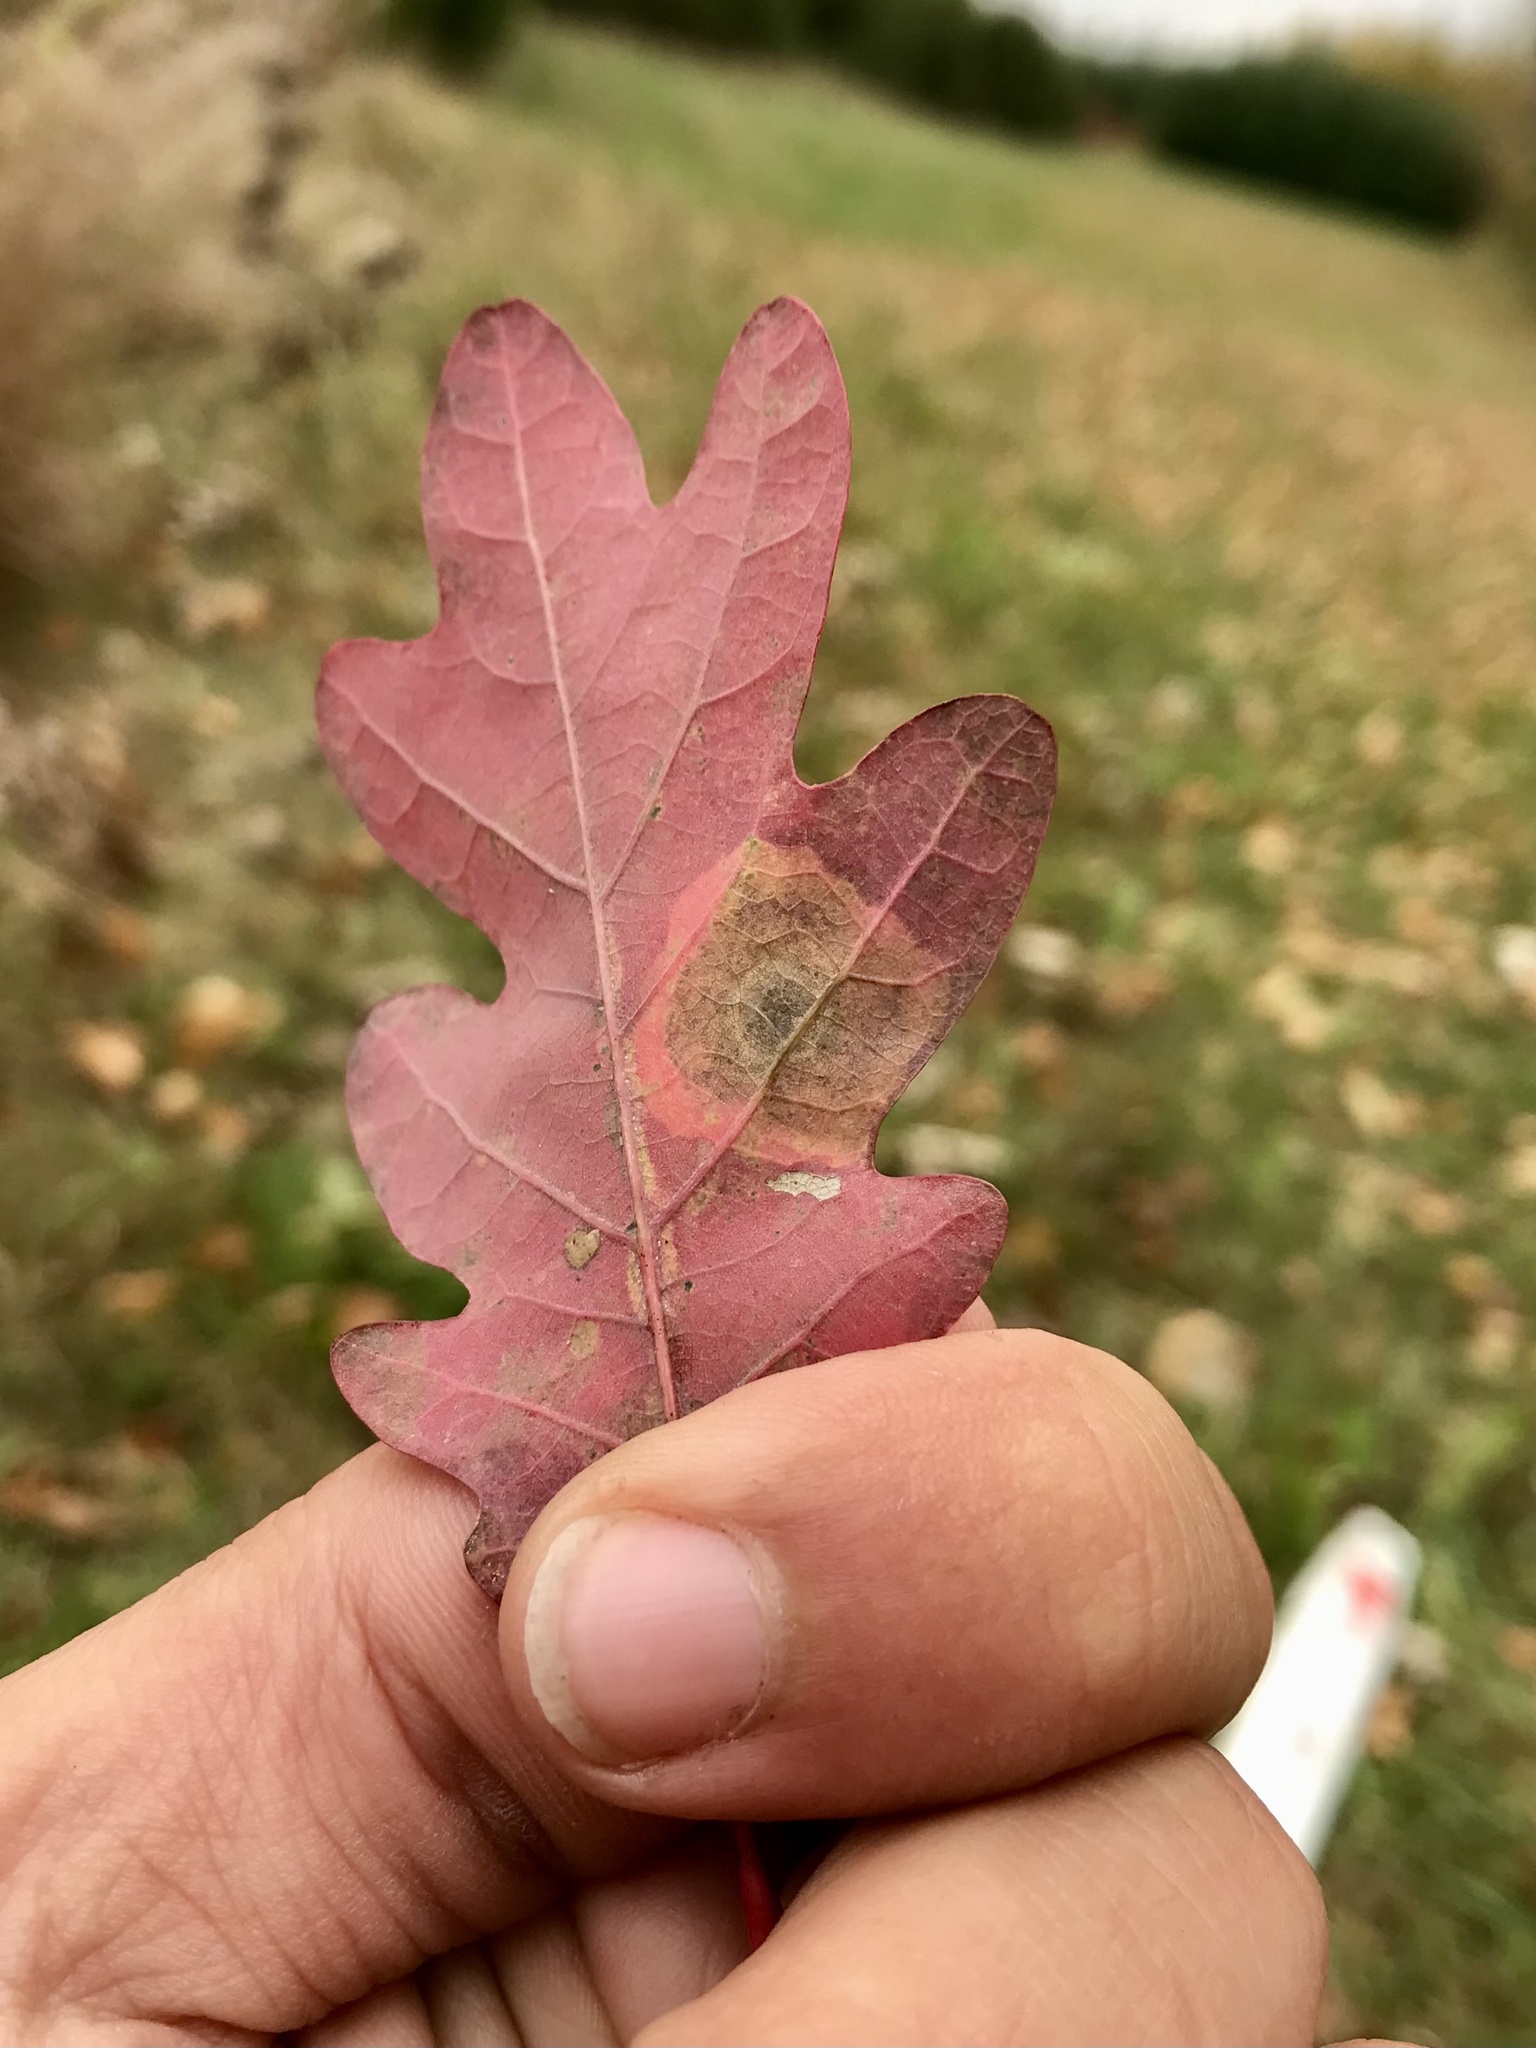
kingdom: Animalia
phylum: Arthropoda
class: Insecta
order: Lepidoptera
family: Gracillariidae
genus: Cameraria
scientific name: Cameraria
